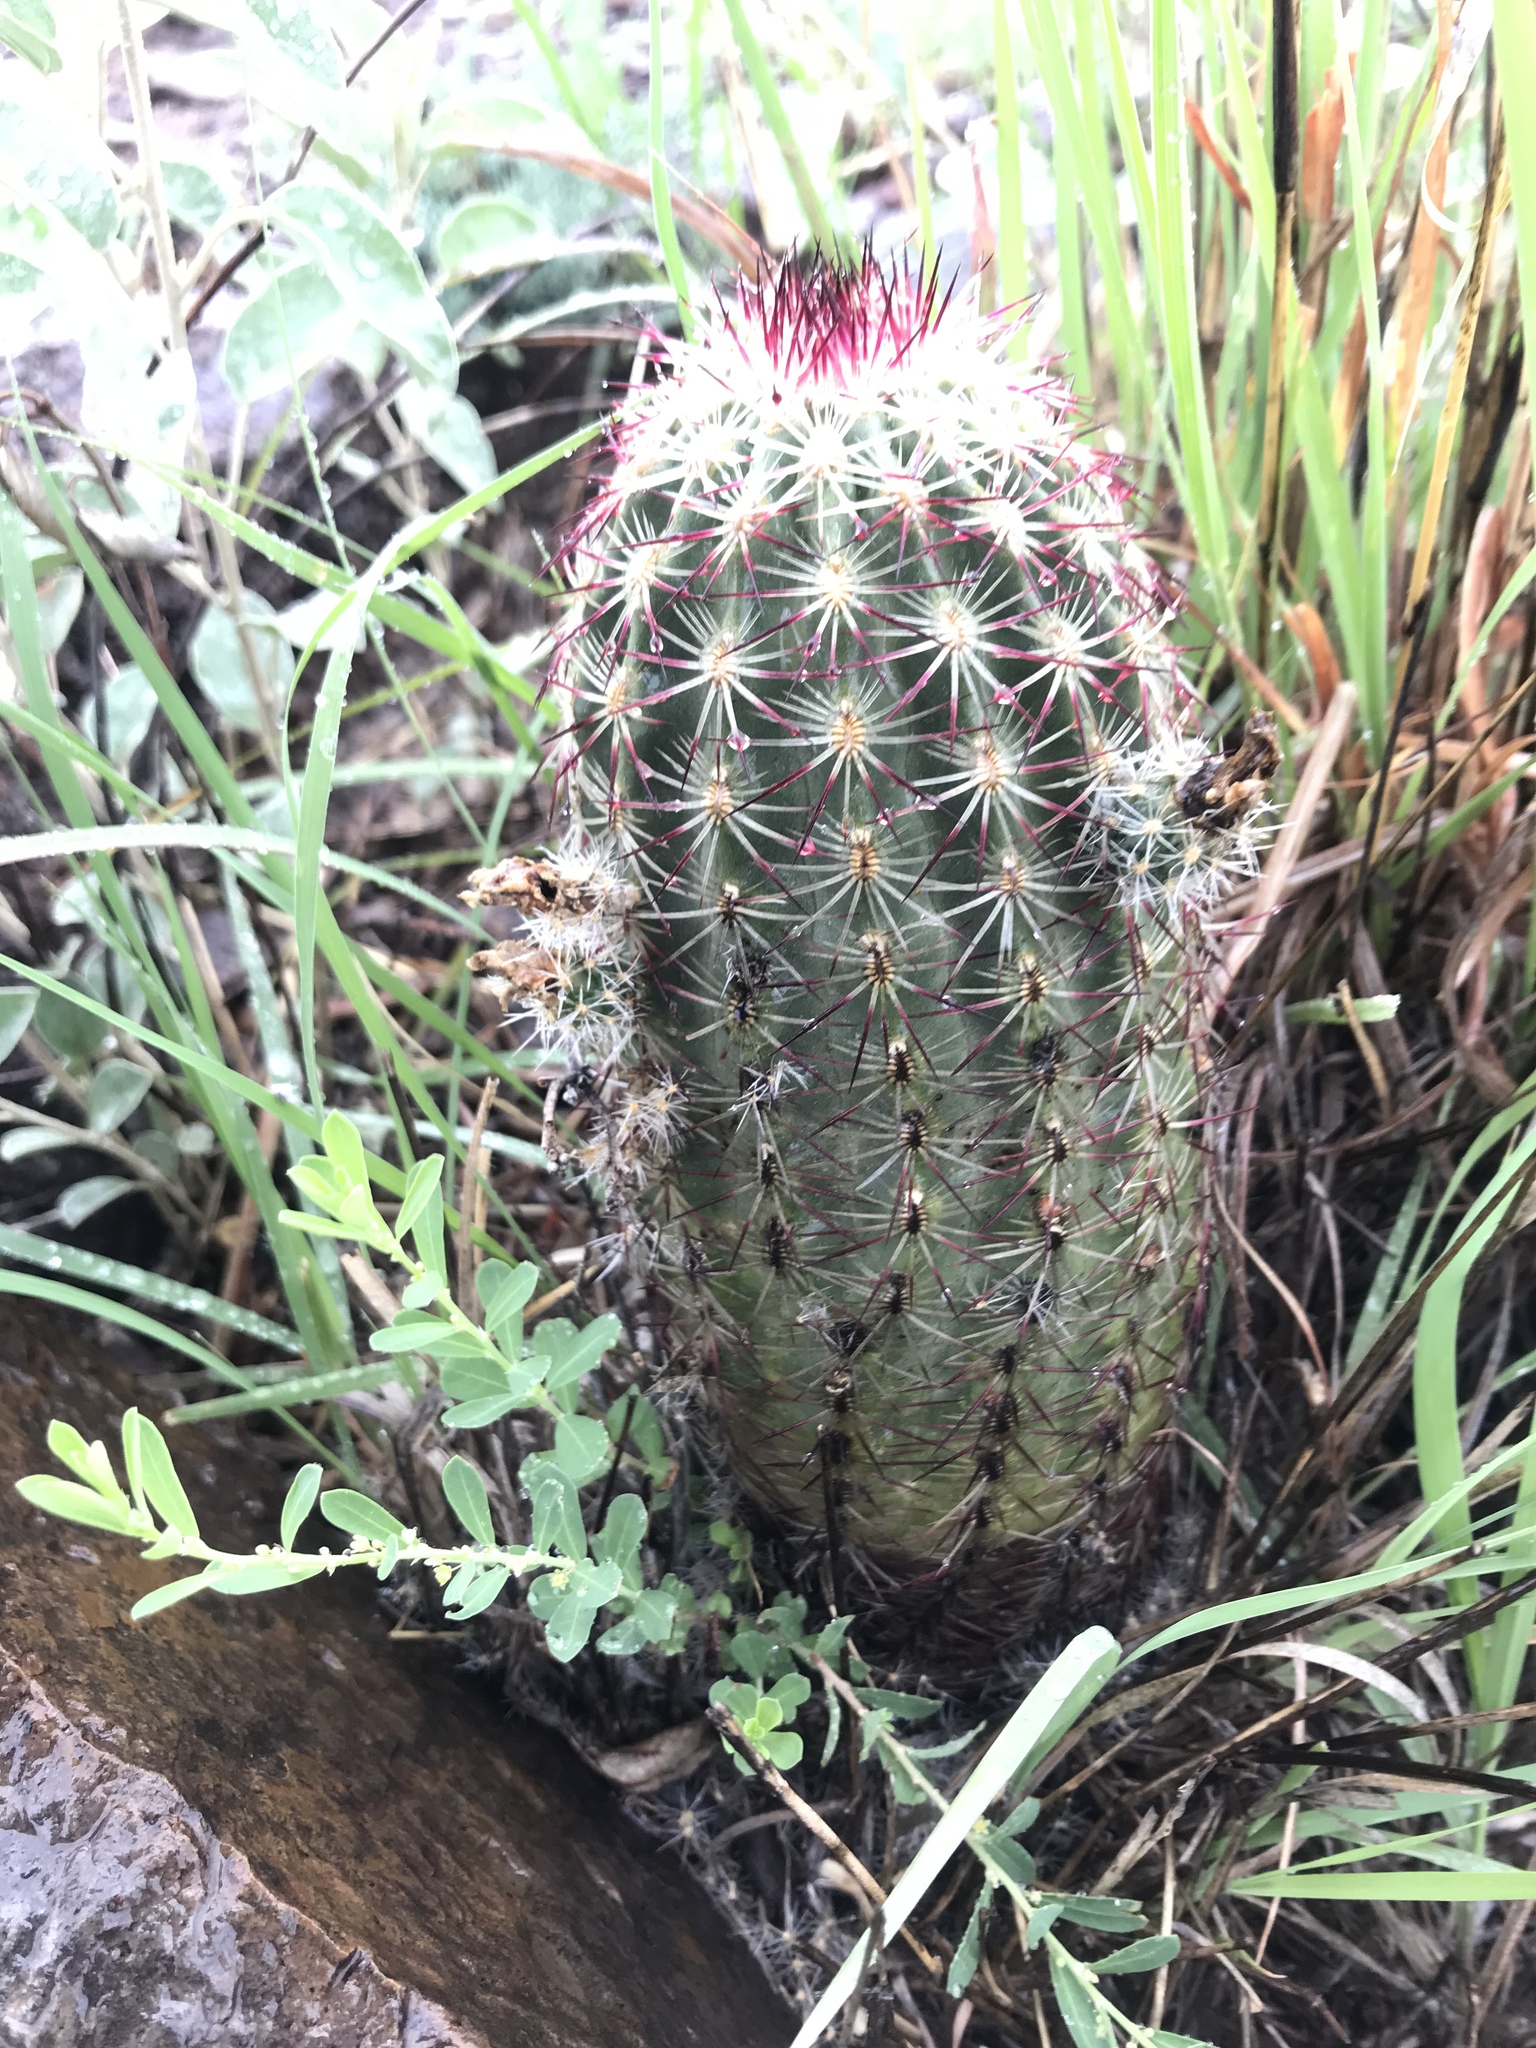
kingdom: Plantae
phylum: Tracheophyta
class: Magnoliopsida
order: Caryophyllales
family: Cactaceae
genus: Echinocereus
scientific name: Echinocereus viridiflorus
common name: Nylon hedgehog cactus
